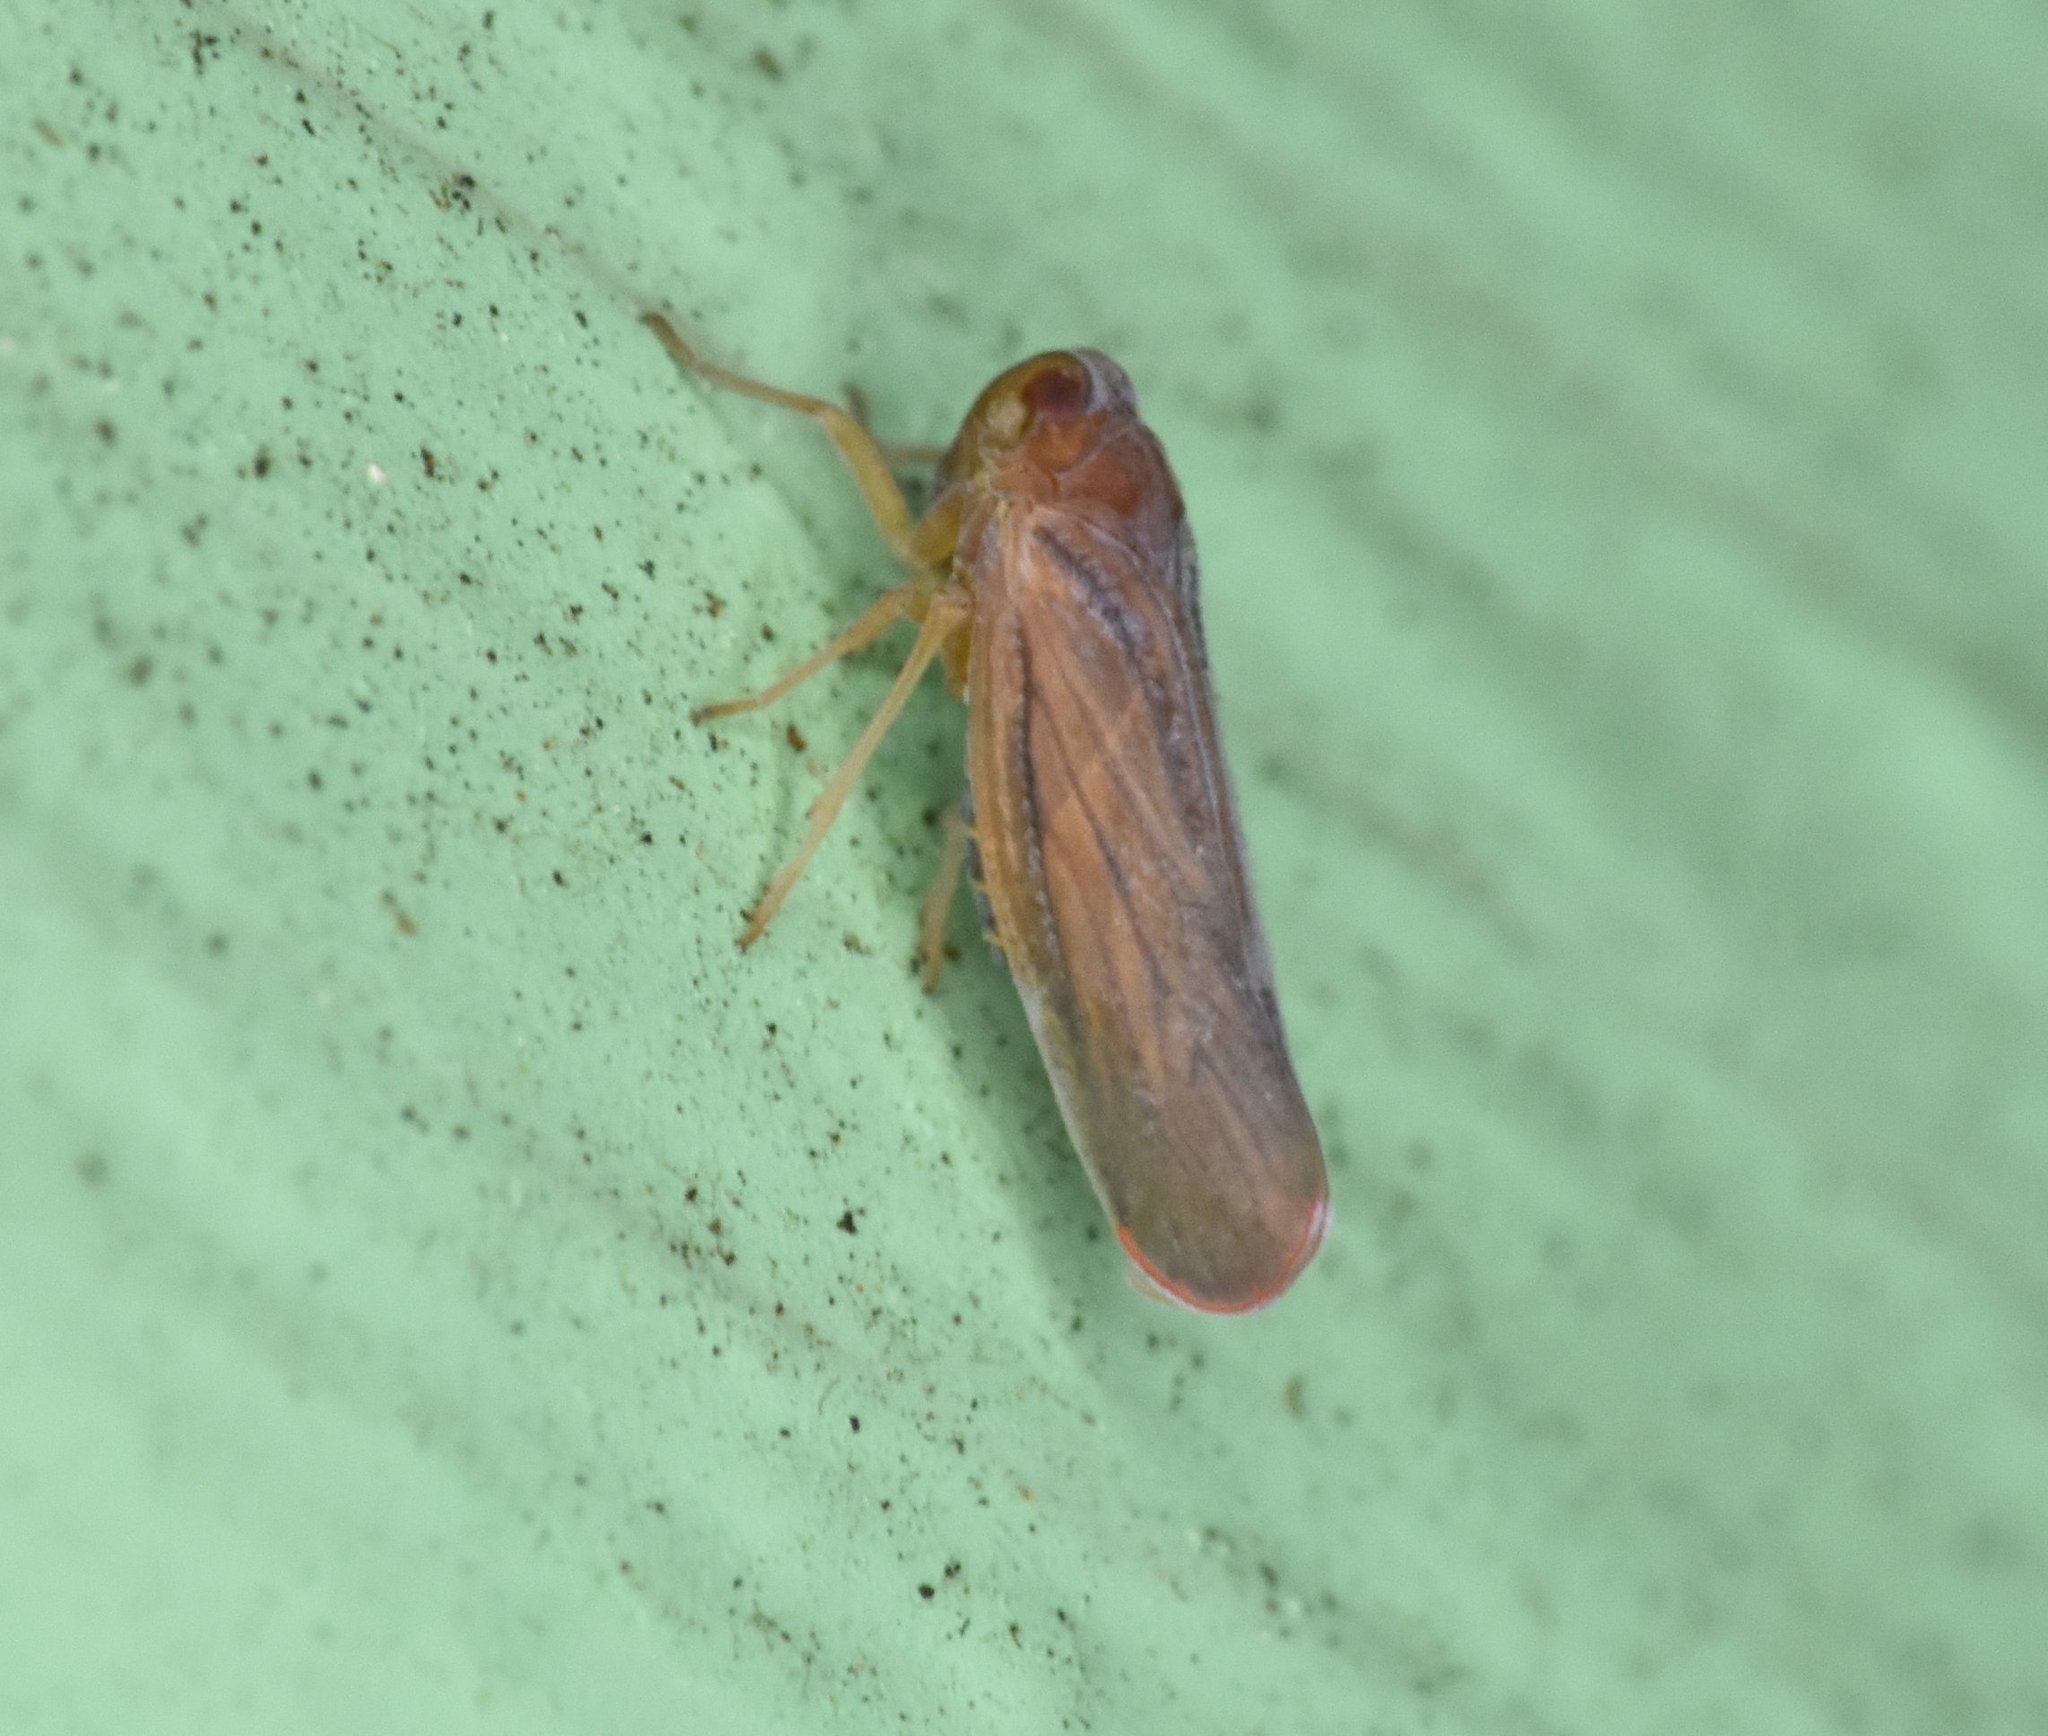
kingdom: Animalia
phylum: Arthropoda
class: Insecta
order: Hemiptera
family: Derbidae
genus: Omolicna
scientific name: Omolicna mcateei
